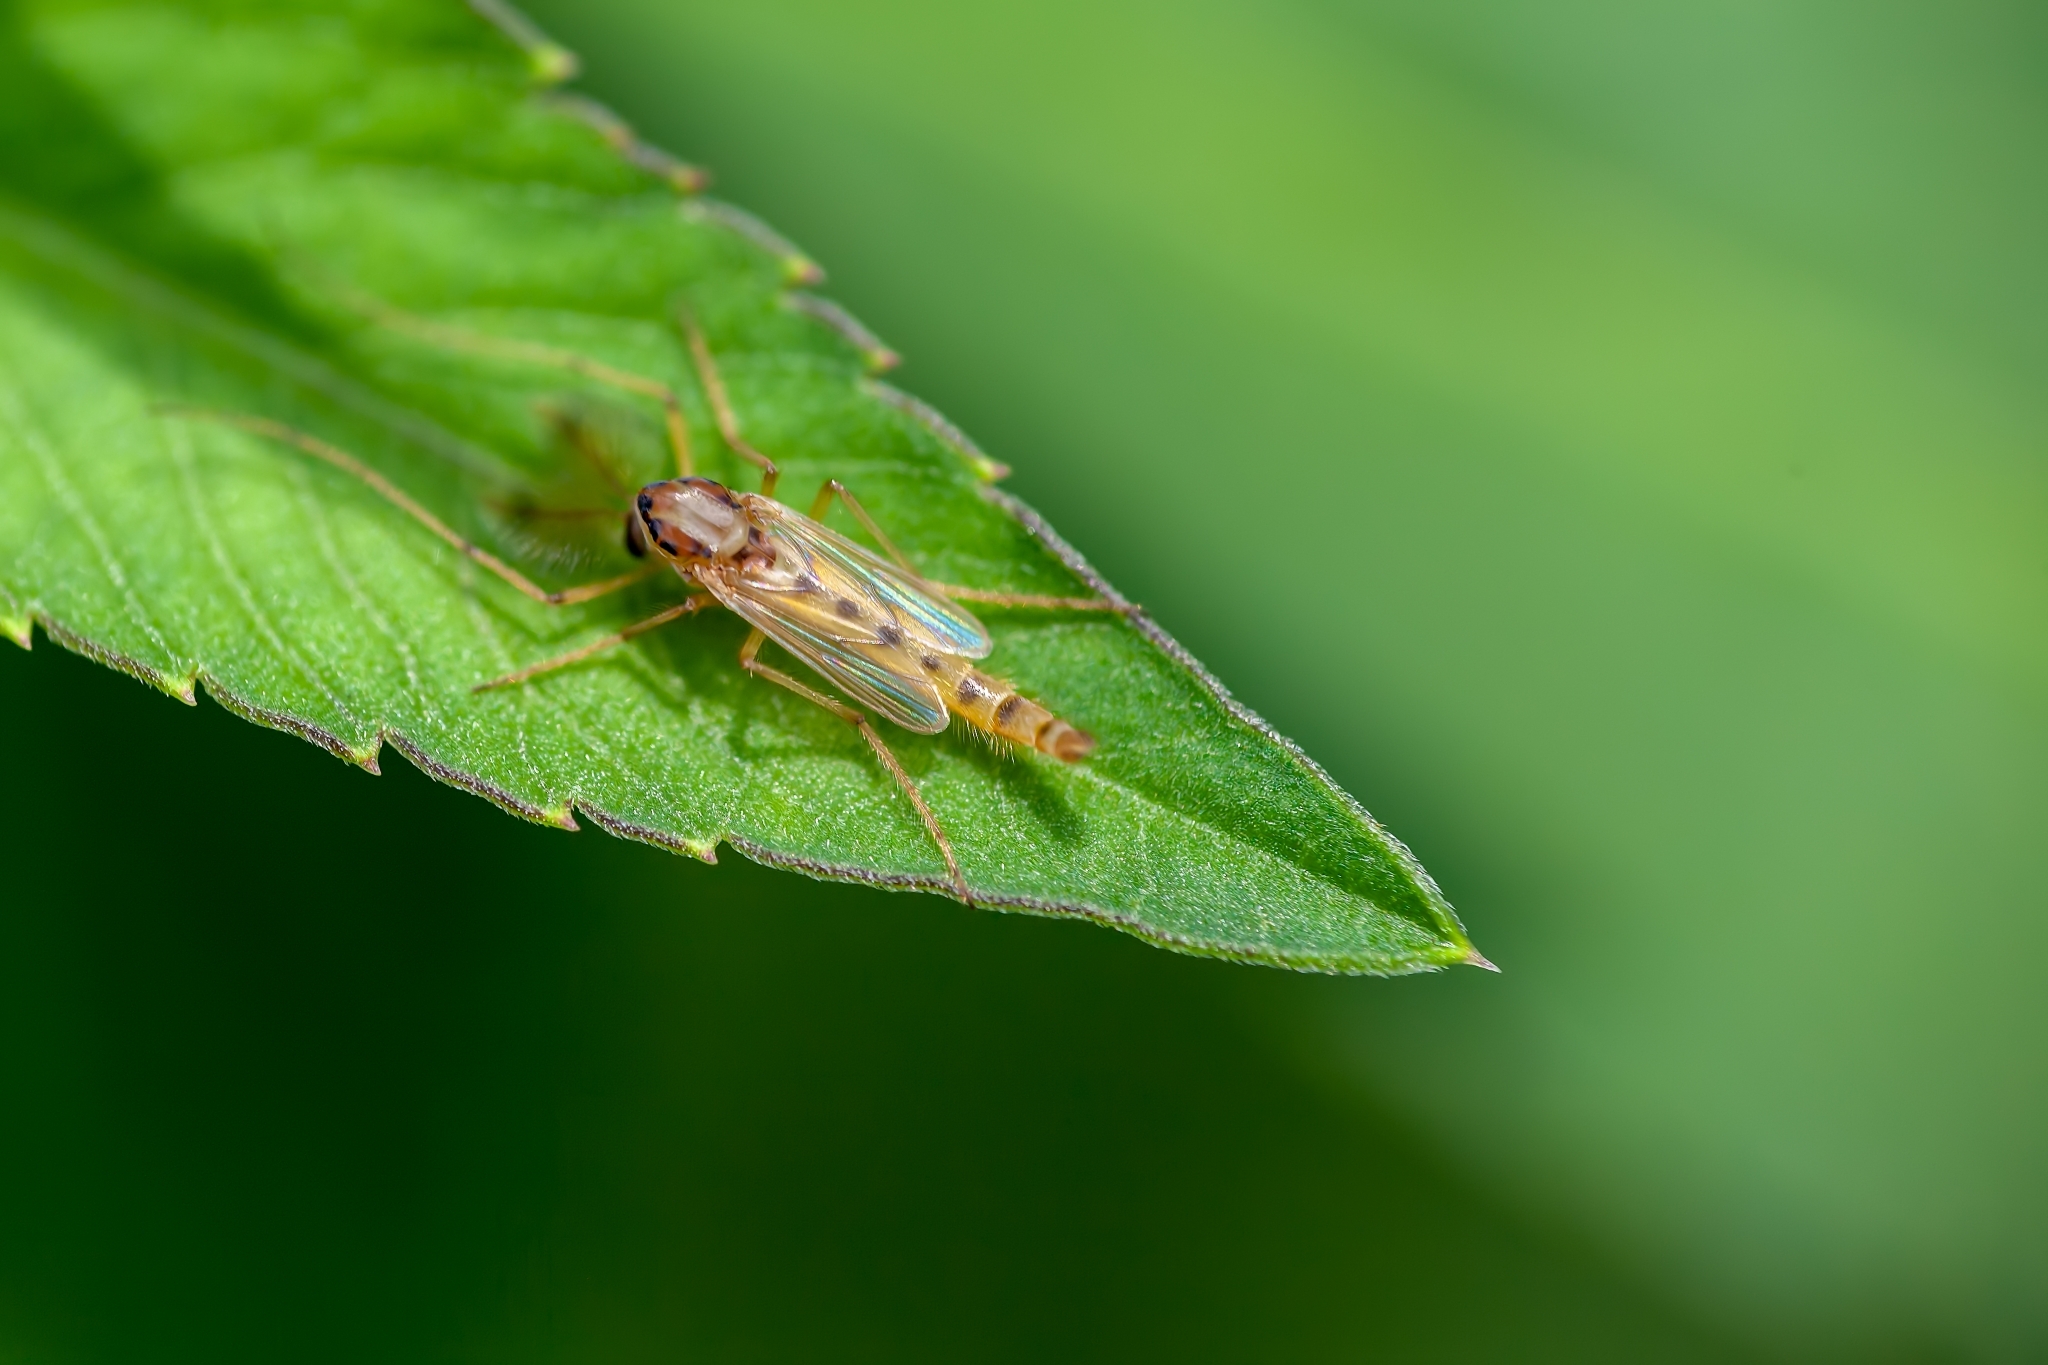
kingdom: Animalia
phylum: Arthropoda
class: Insecta
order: Diptera
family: Chironomidae
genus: Goeldichironomus
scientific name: Goeldichironomus carus
